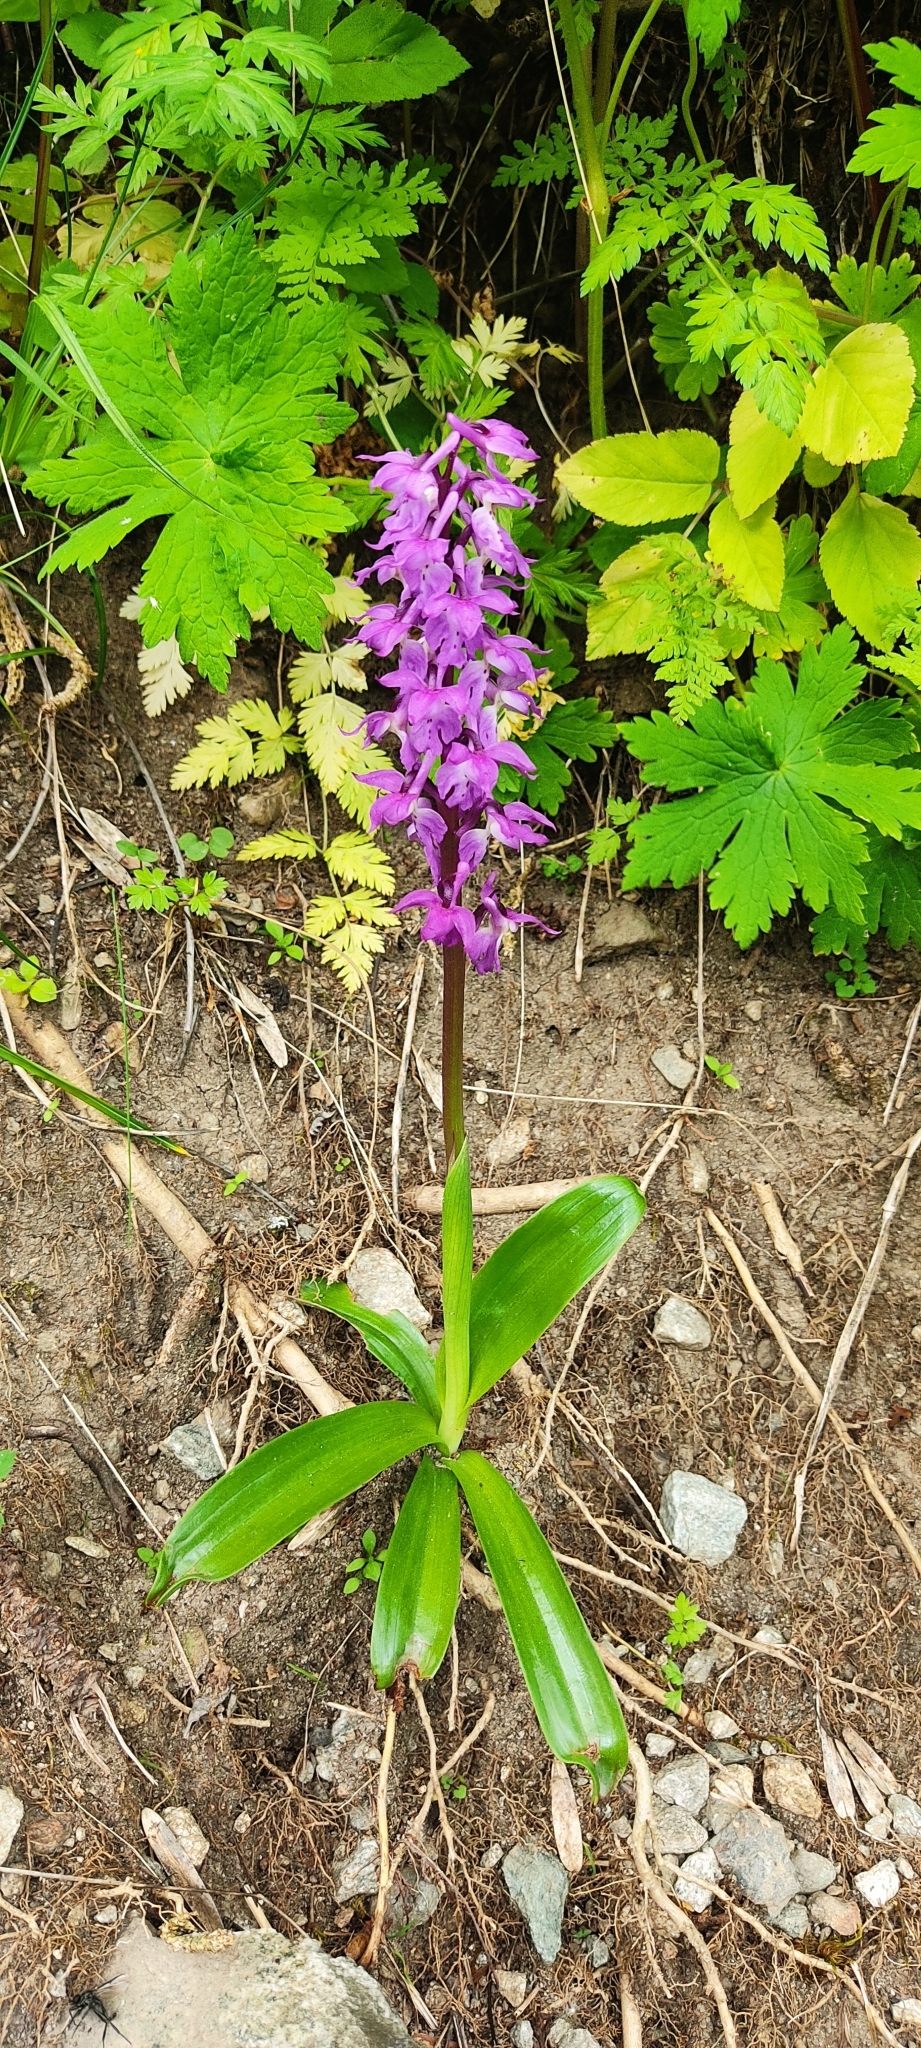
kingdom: Plantae
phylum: Tracheophyta
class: Liliopsida
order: Asparagales
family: Orchidaceae
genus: Orchis
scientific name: Orchis mascula
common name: Early-purple orchid
